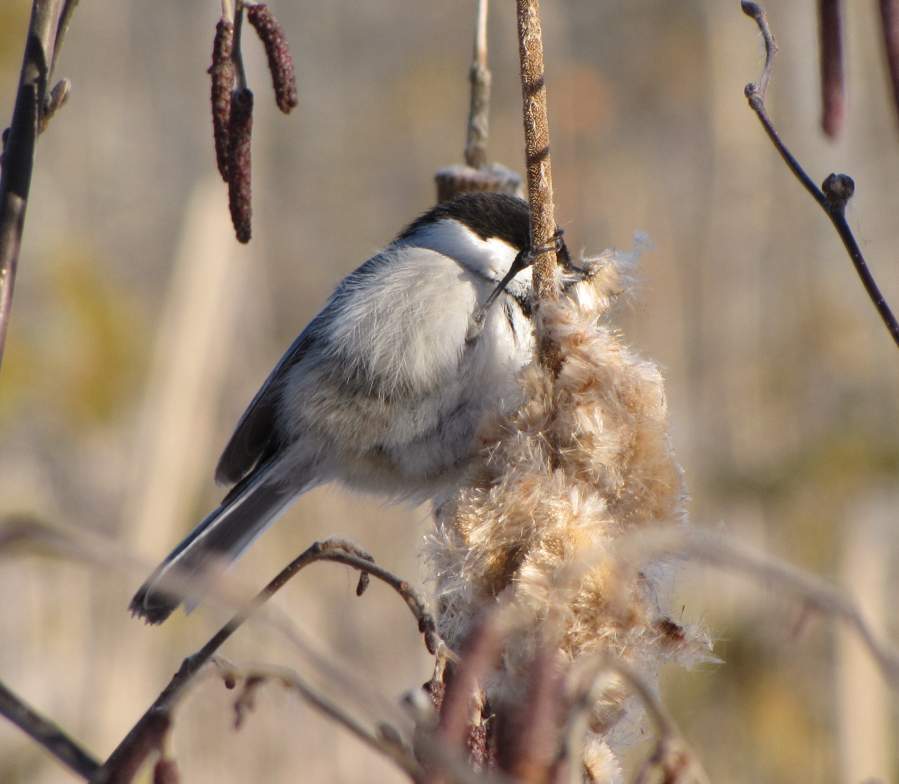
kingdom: Animalia
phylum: Chordata
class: Aves
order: Passeriformes
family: Paridae
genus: Poecile
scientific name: Poecile atricapillus
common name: Black-capped chickadee
